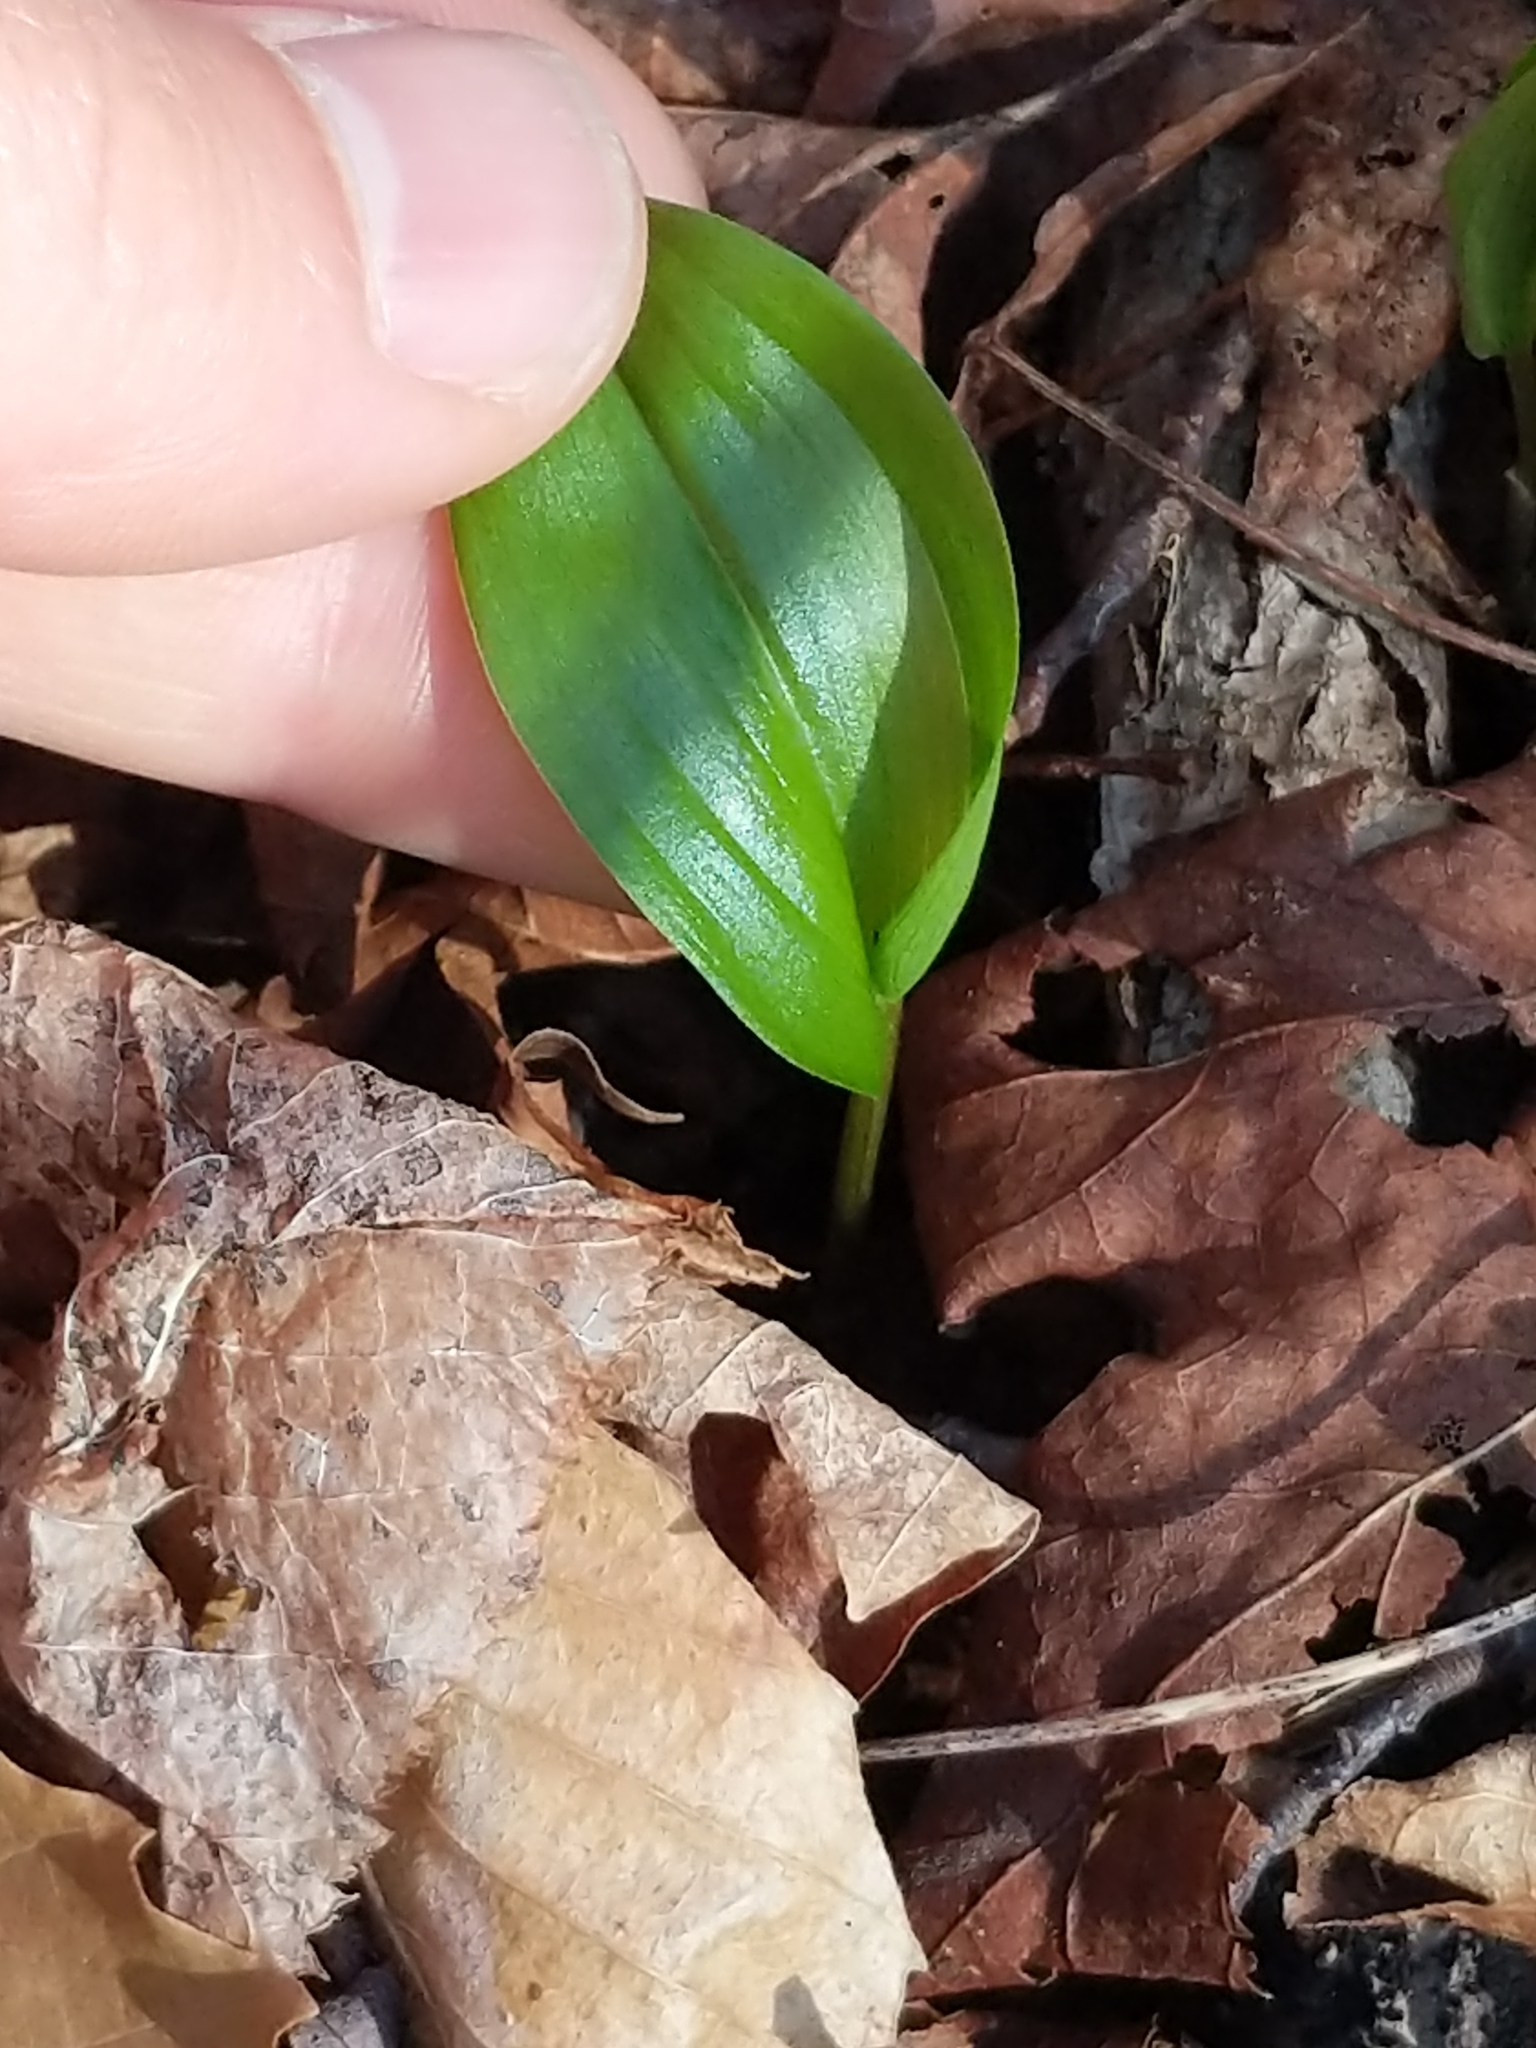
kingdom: Plantae
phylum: Tracheophyta
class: Liliopsida
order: Asparagales
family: Asparagaceae
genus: Maianthemum
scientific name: Maianthemum canadense
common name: False lily-of-the-valley
